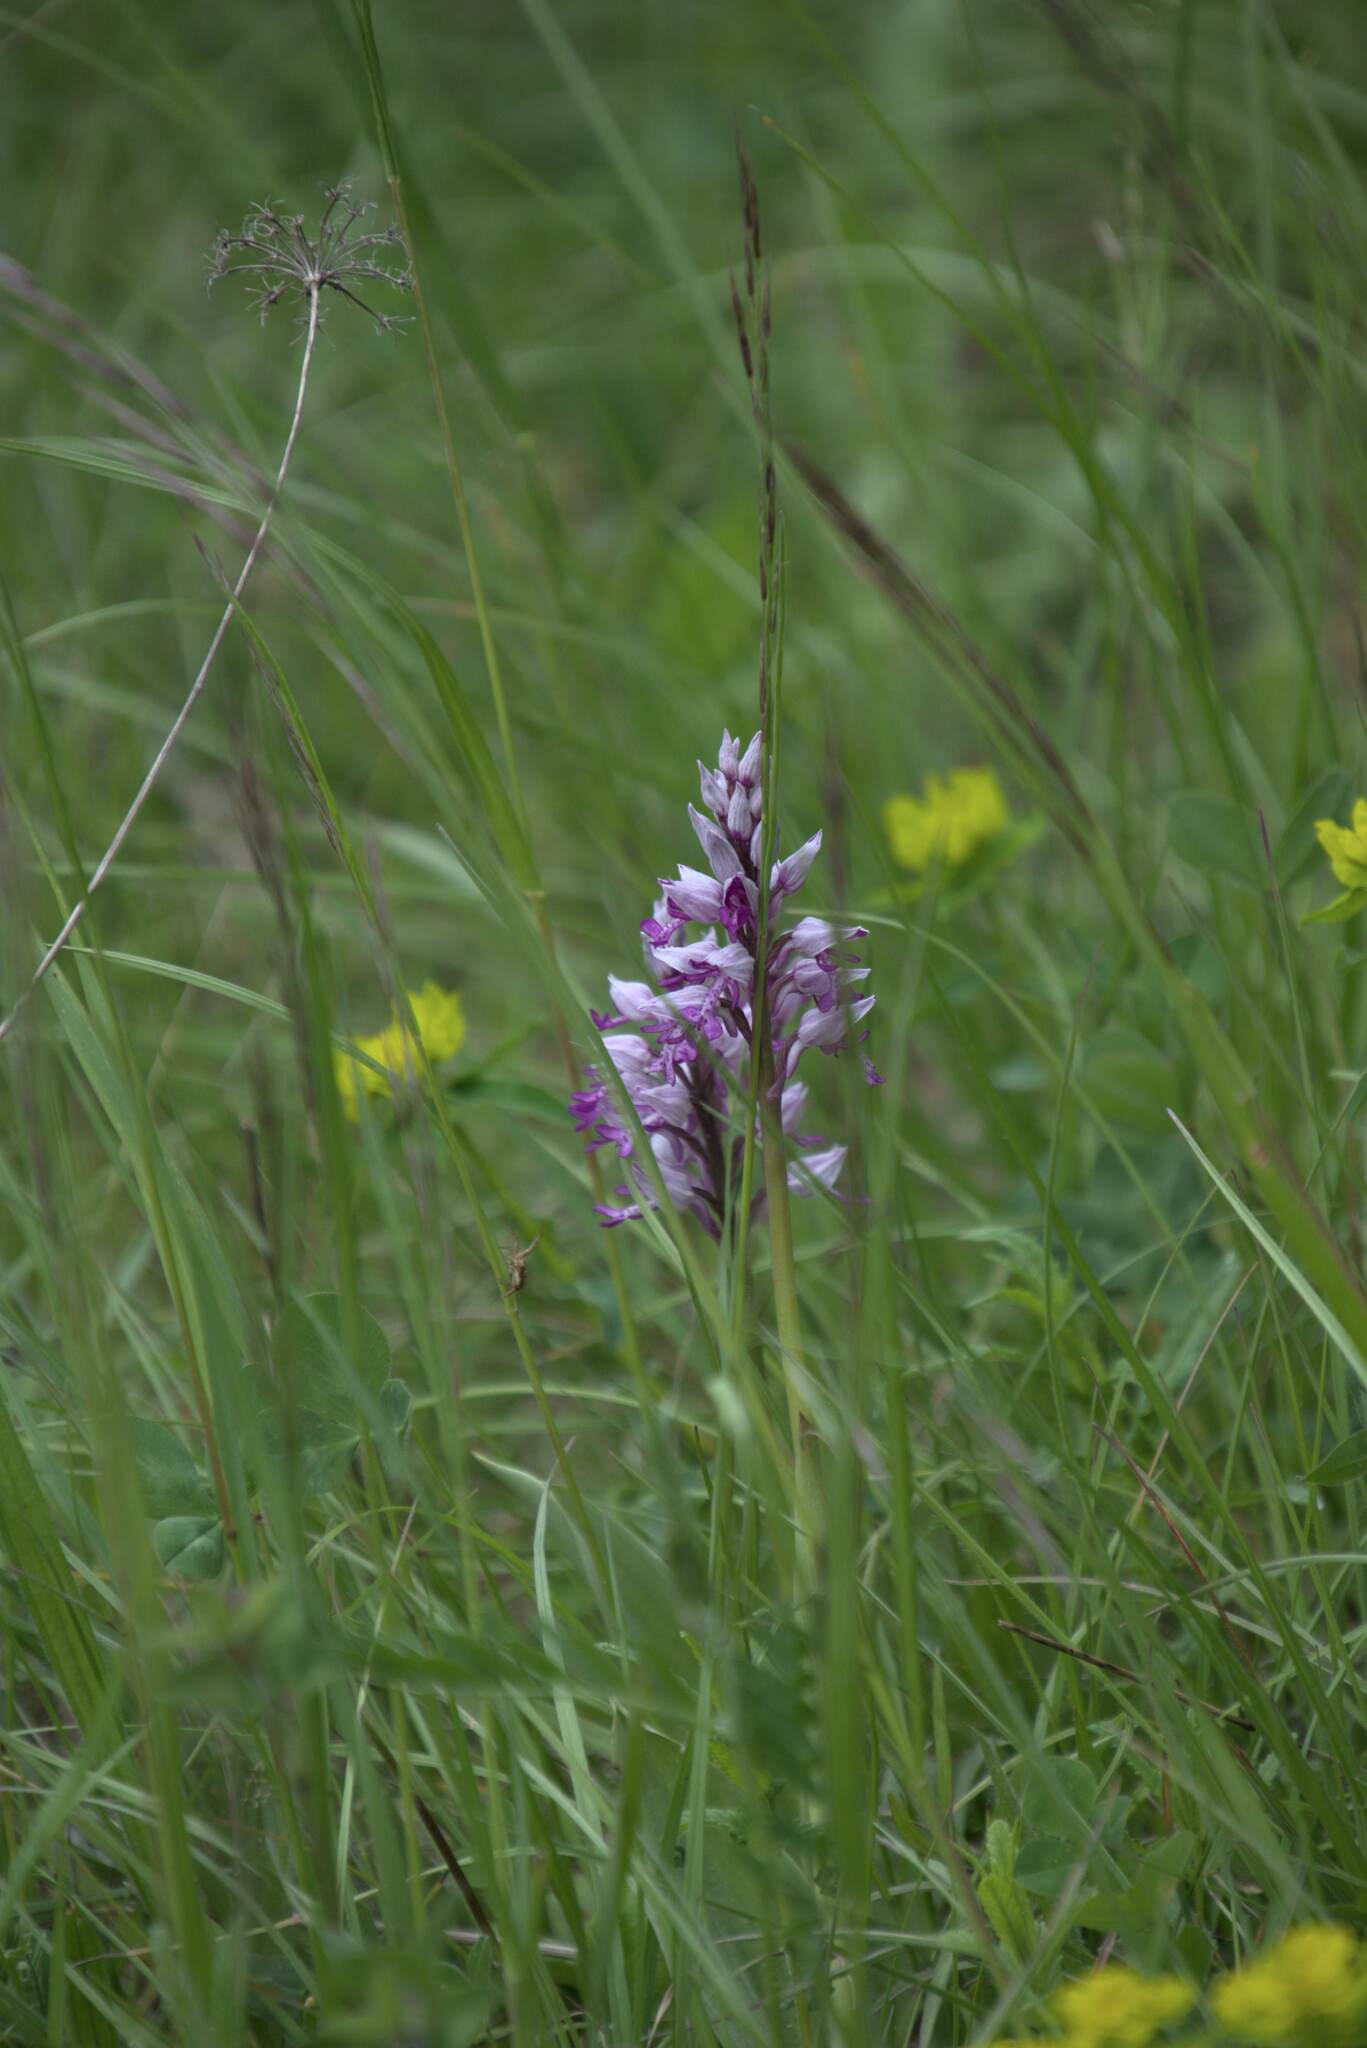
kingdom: Plantae
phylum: Tracheophyta
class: Liliopsida
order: Asparagales
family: Orchidaceae
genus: Orchis
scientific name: Orchis militaris
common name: Military orchid
